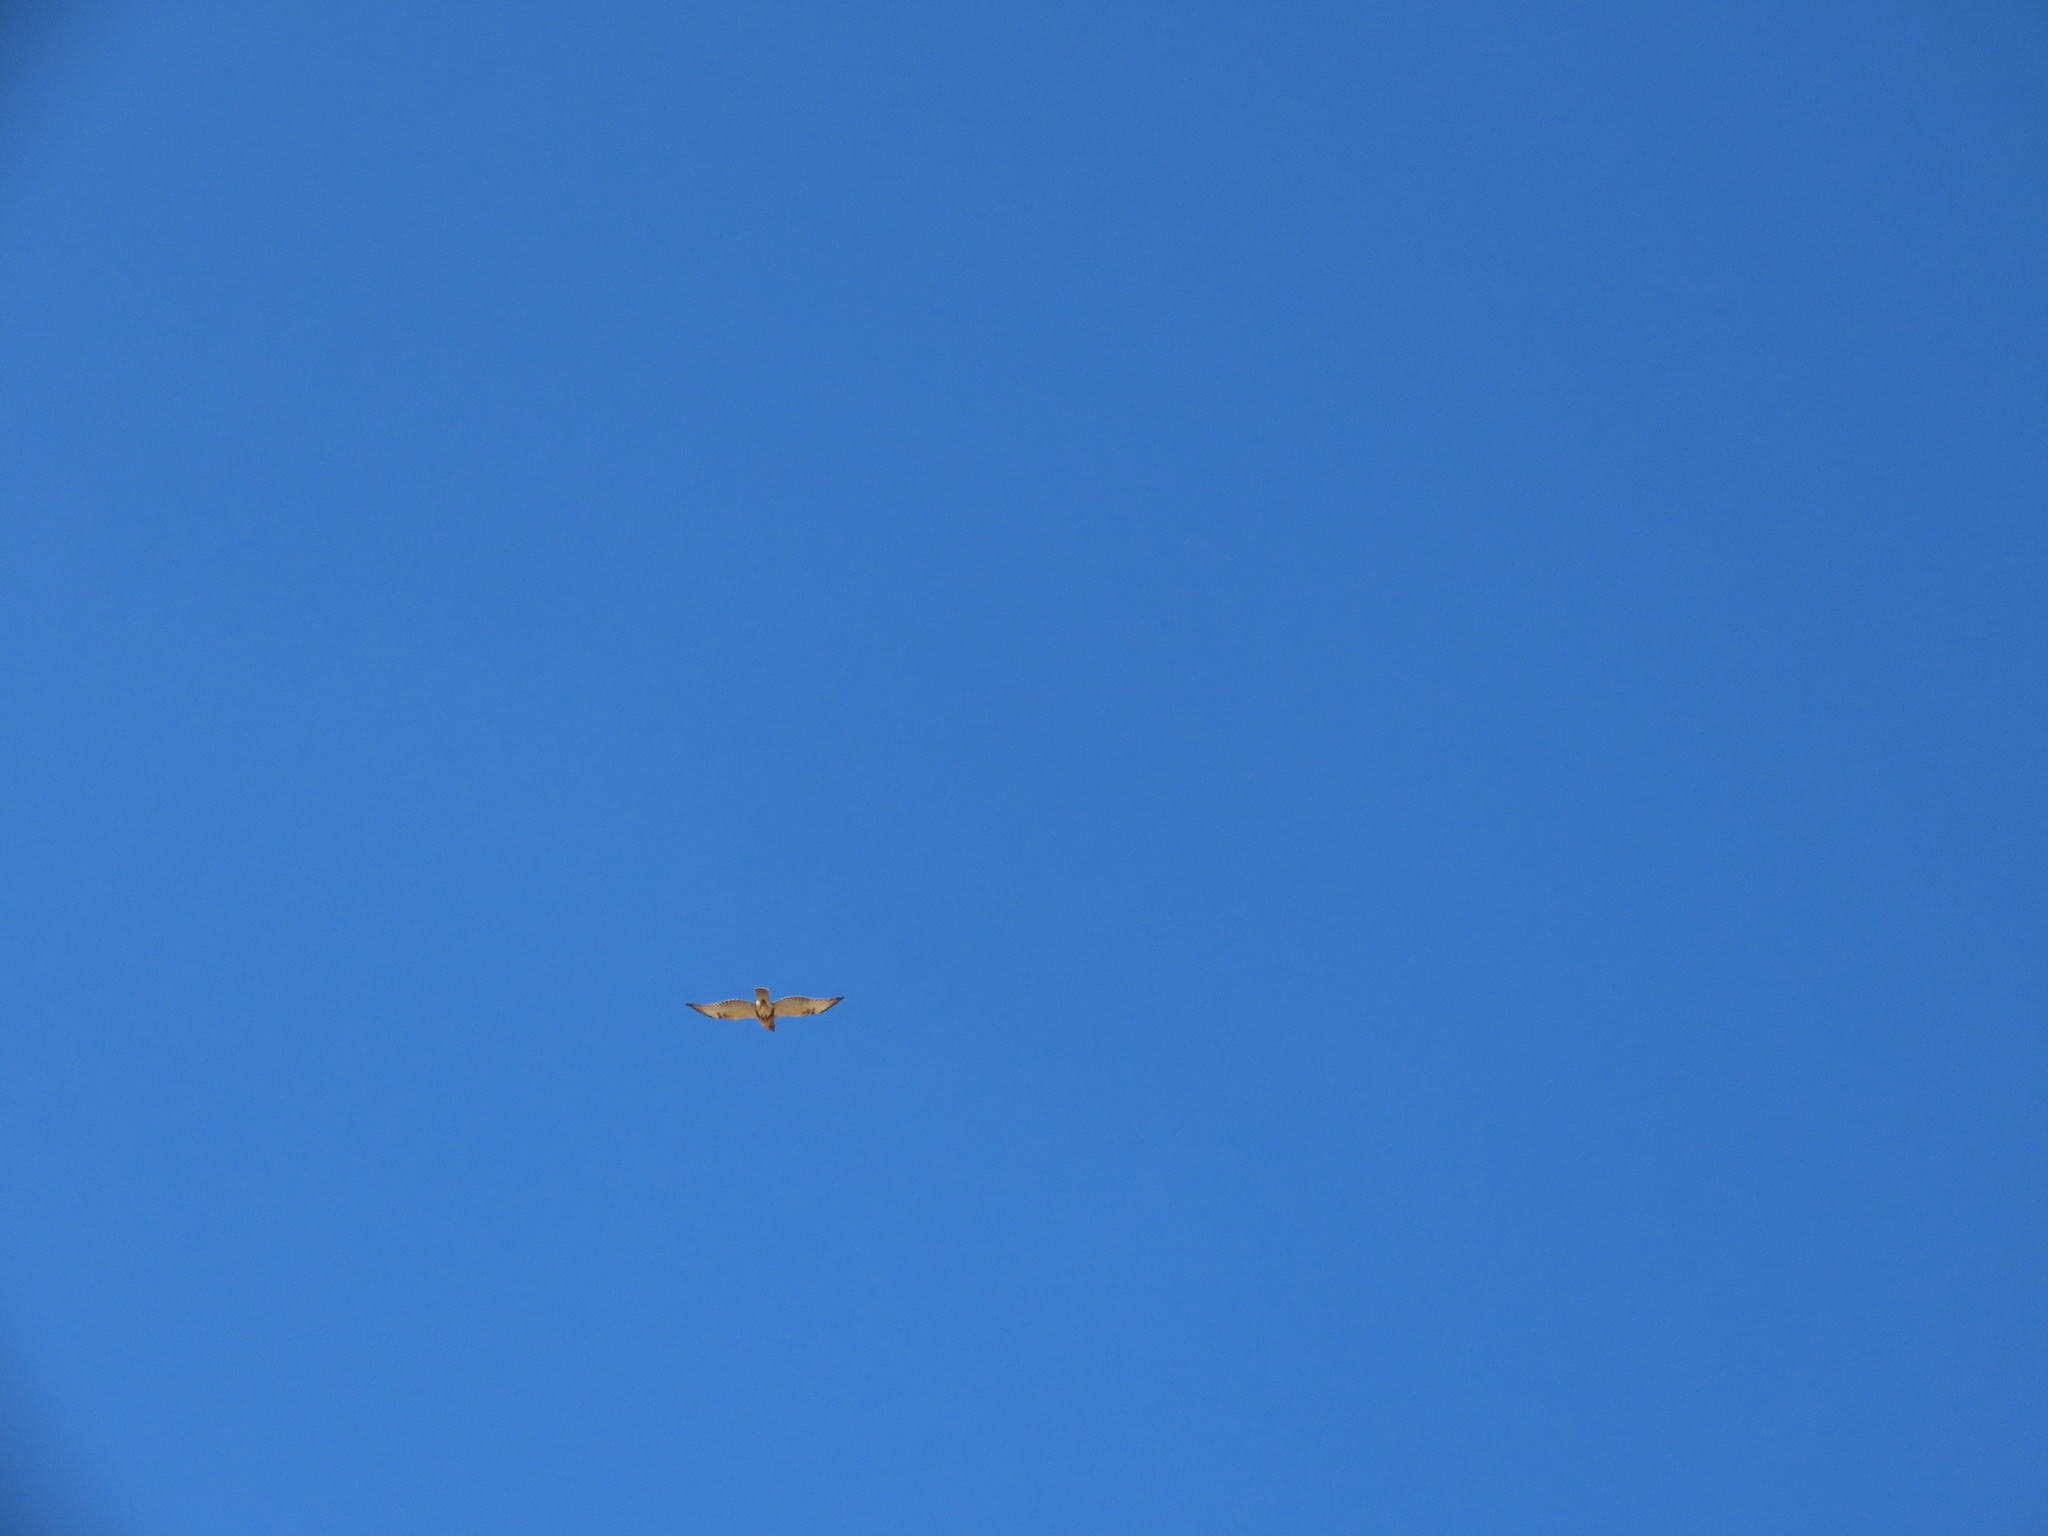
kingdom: Animalia
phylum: Chordata
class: Aves
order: Accipitriformes
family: Accipitridae
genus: Buteo
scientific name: Buteo japonicus
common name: Eastern buzzard
